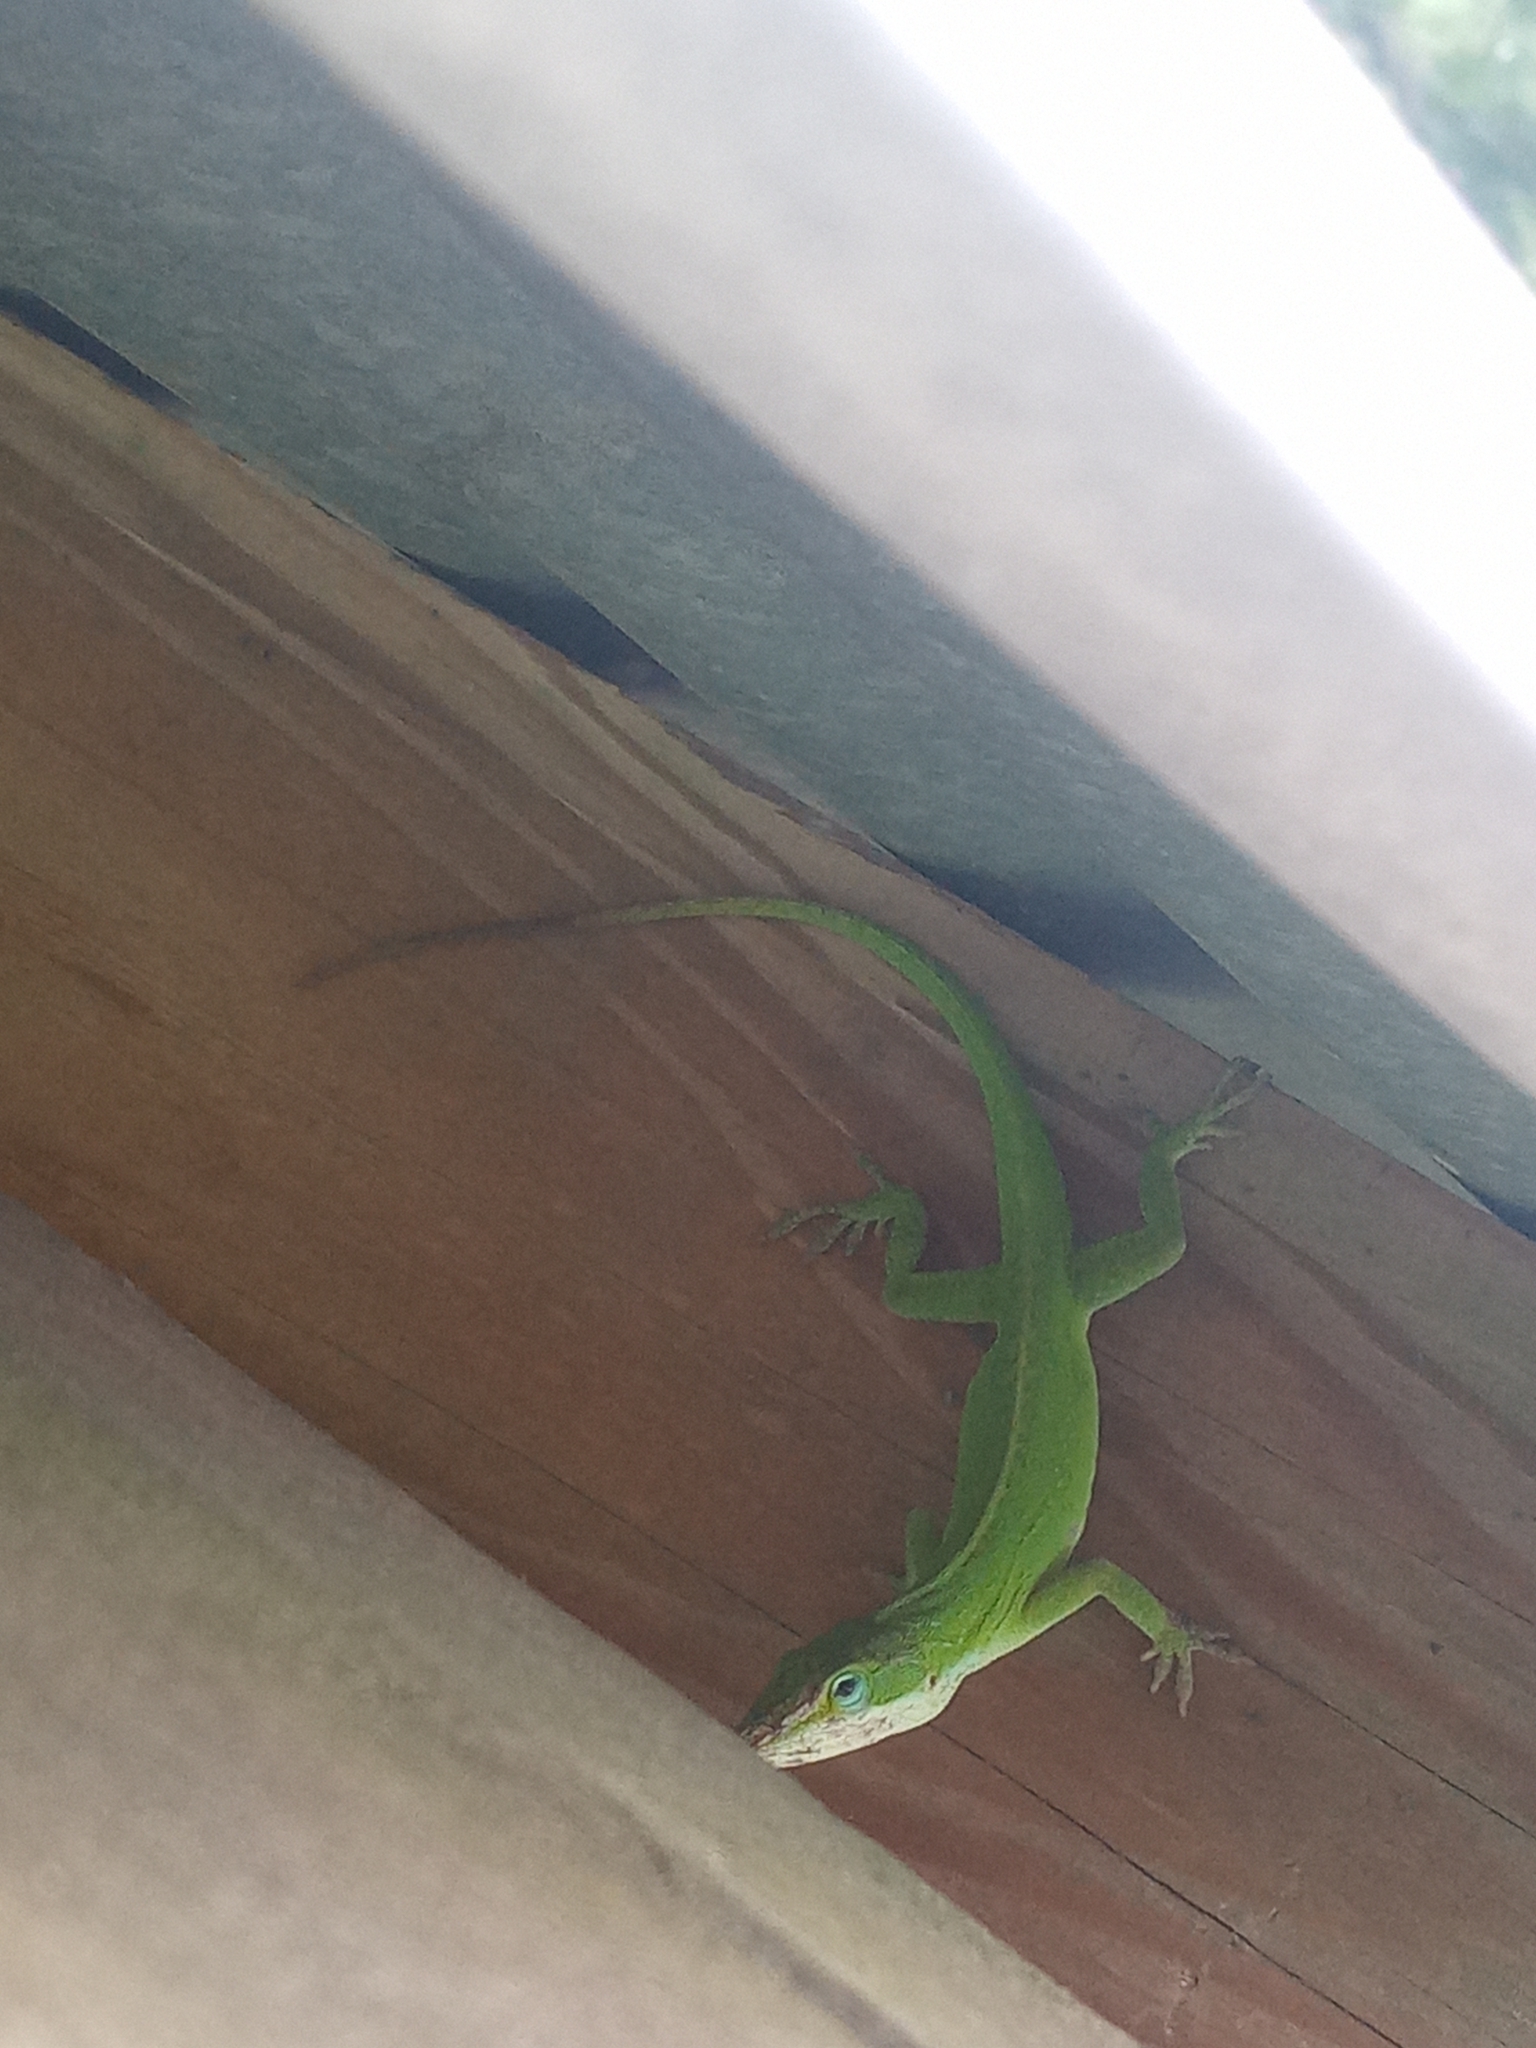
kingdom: Animalia
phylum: Chordata
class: Squamata
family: Dactyloidae
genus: Anolis
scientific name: Anolis carolinensis
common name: Green anole
